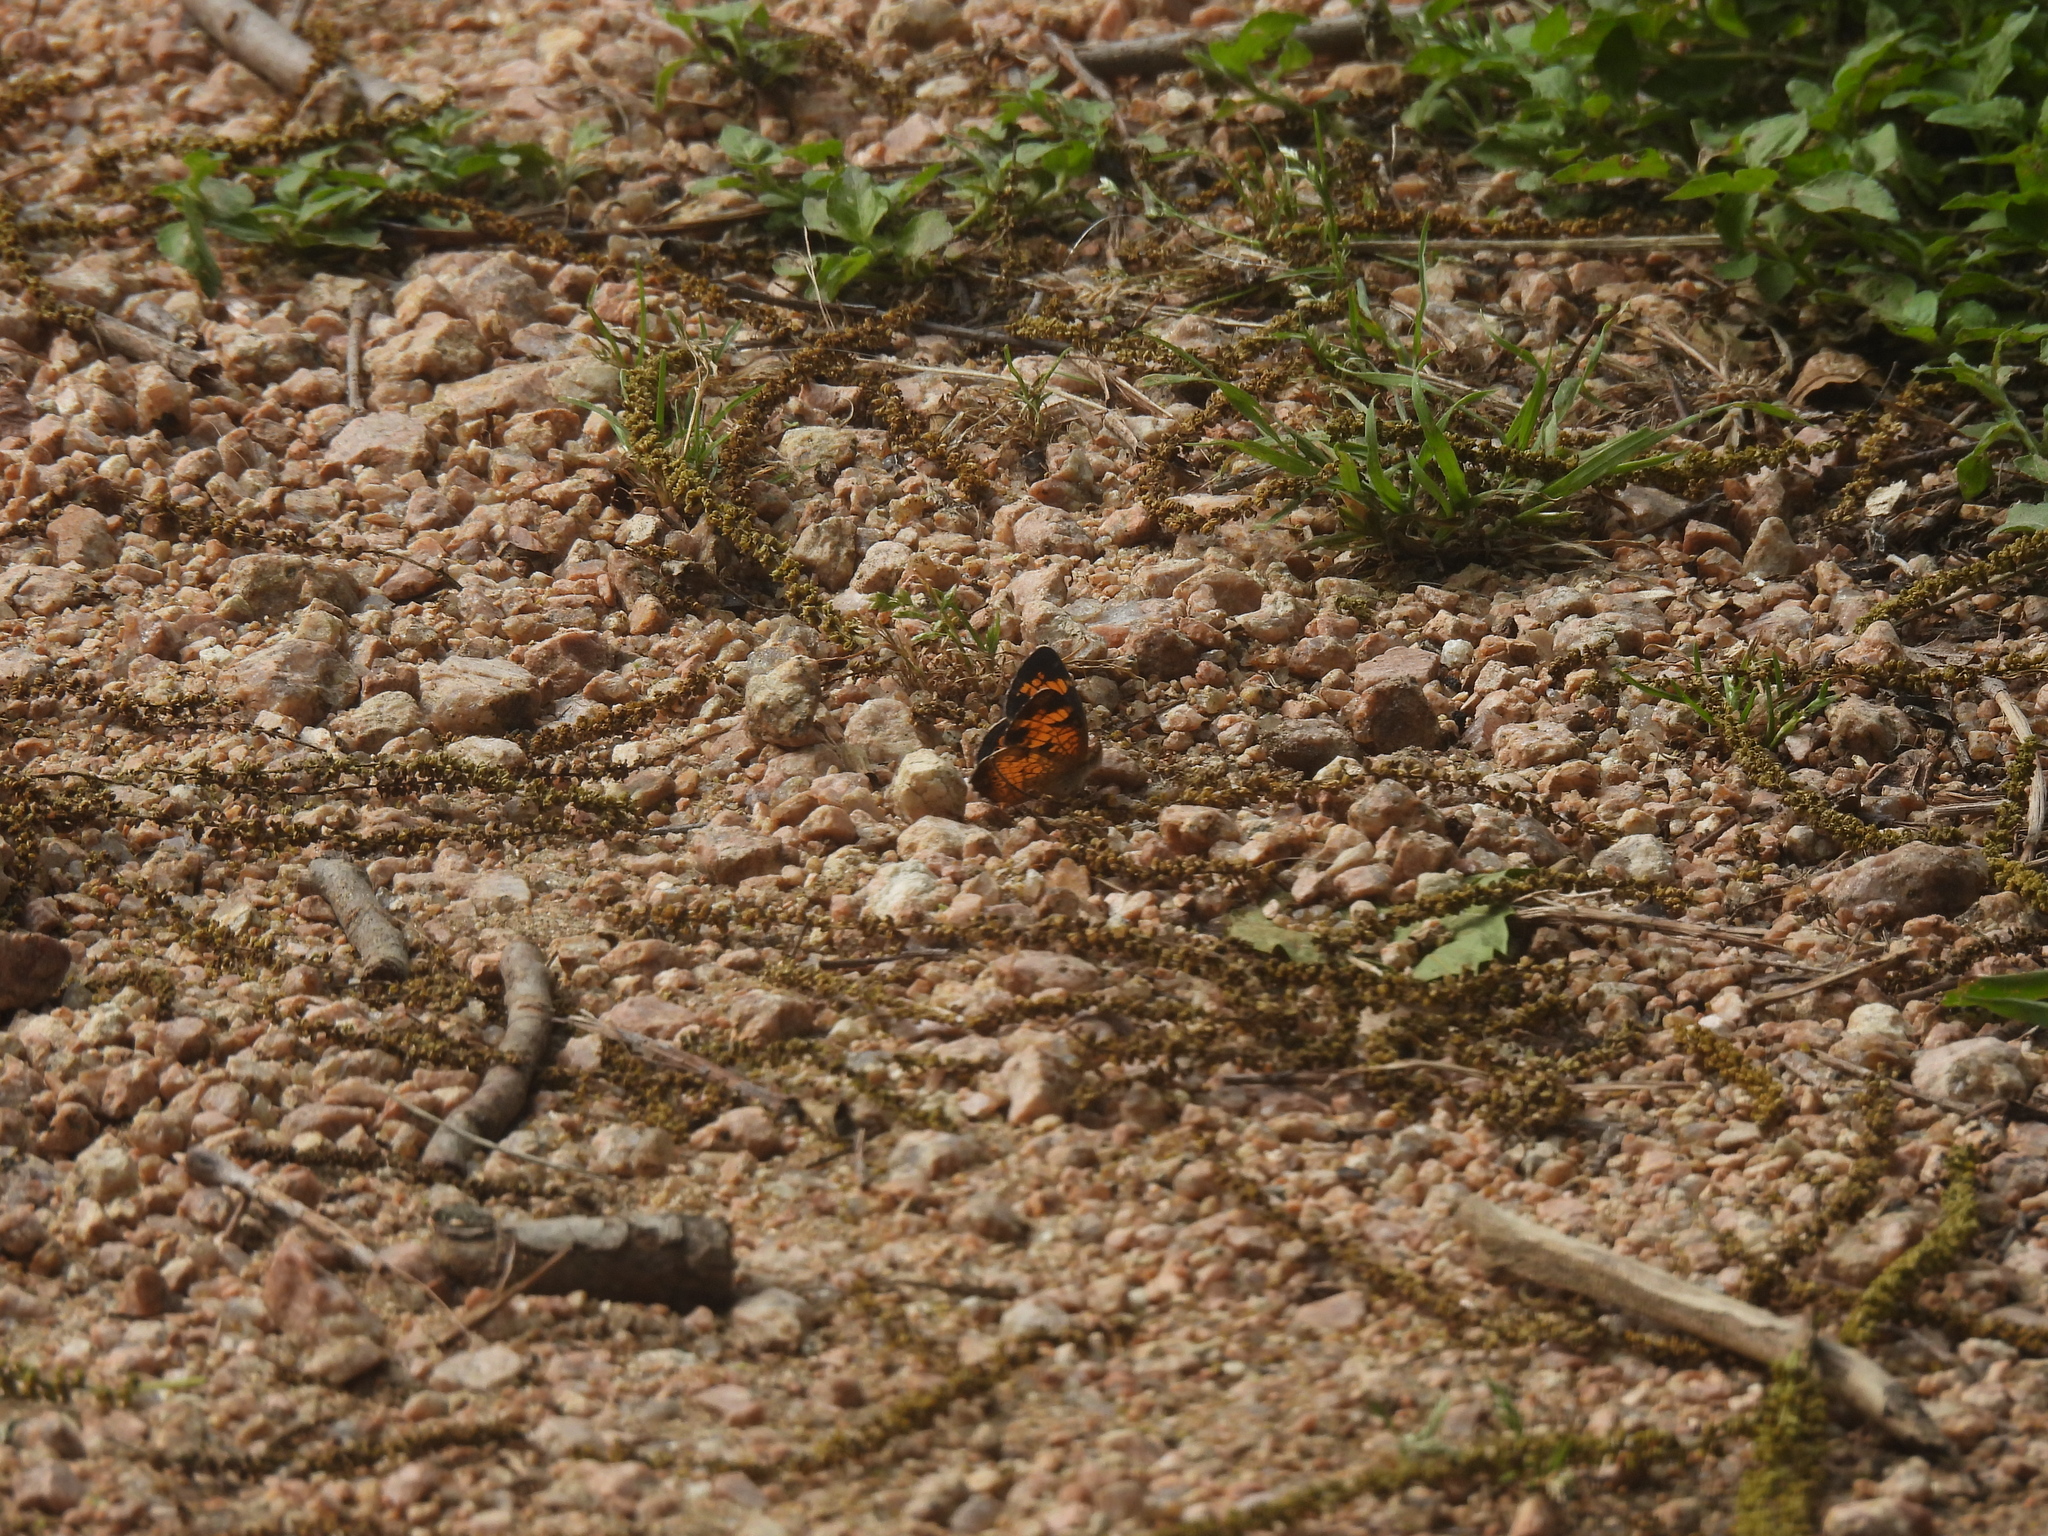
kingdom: Animalia
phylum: Arthropoda
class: Insecta
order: Lepidoptera
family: Nymphalidae
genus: Phyciodes
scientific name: Phyciodes tharos
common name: Pearl crescent
